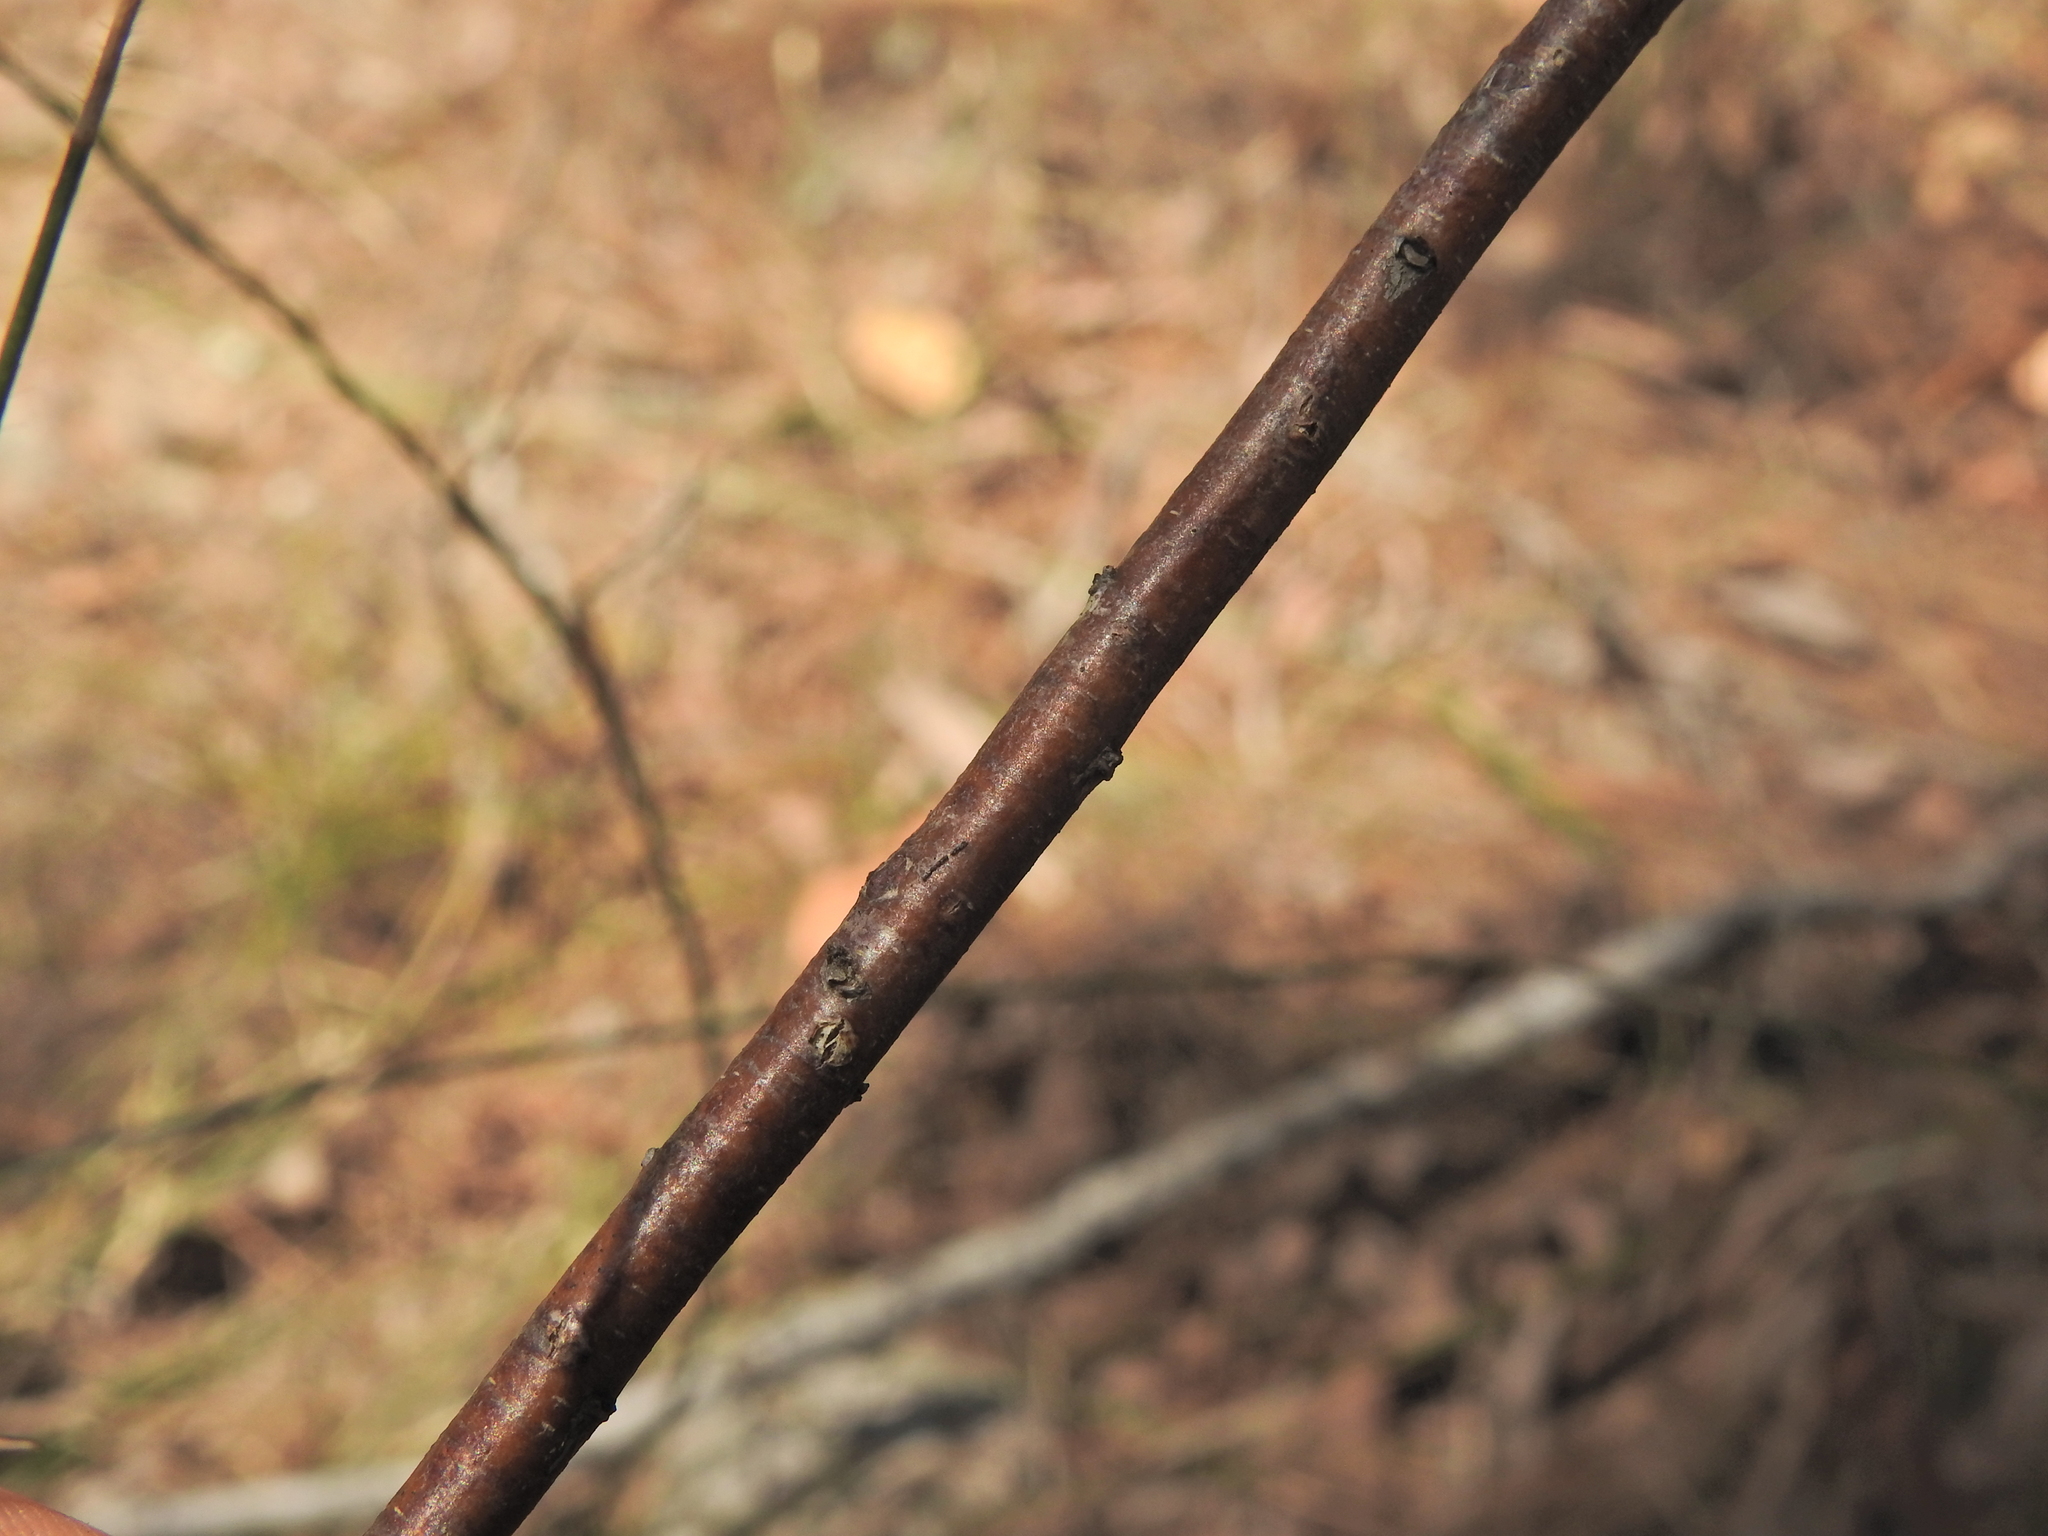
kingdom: Plantae
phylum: Tracheophyta
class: Magnoliopsida
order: Fabales
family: Fabaceae
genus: Acacia
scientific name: Acacia juncifolia
